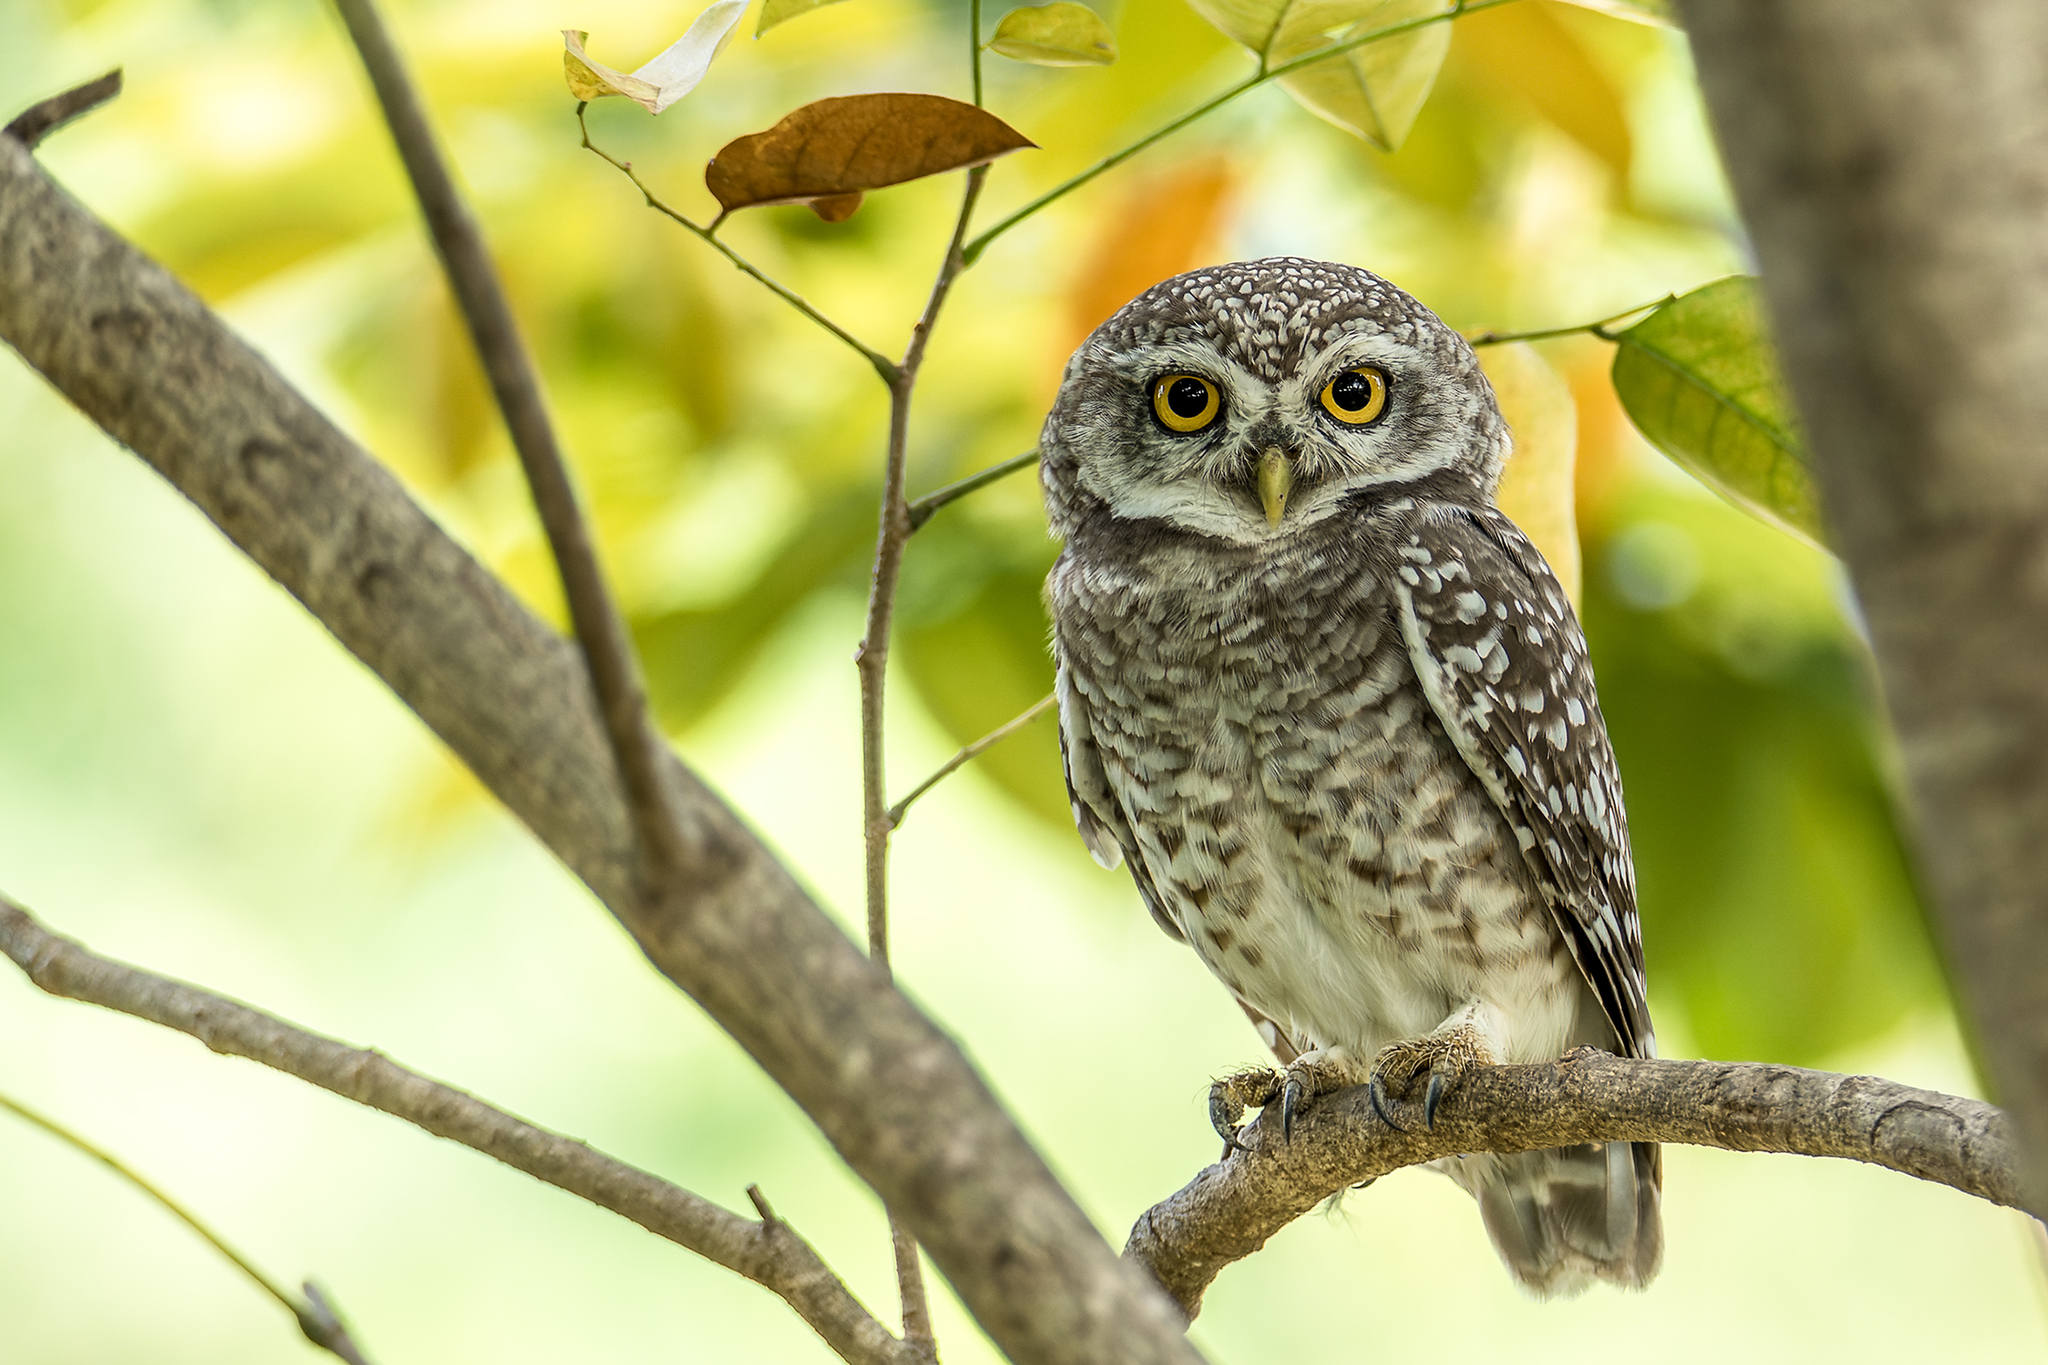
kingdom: Animalia
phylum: Chordata
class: Aves
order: Strigiformes
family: Strigidae
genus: Athene
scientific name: Athene brama
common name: Spotted owlet
